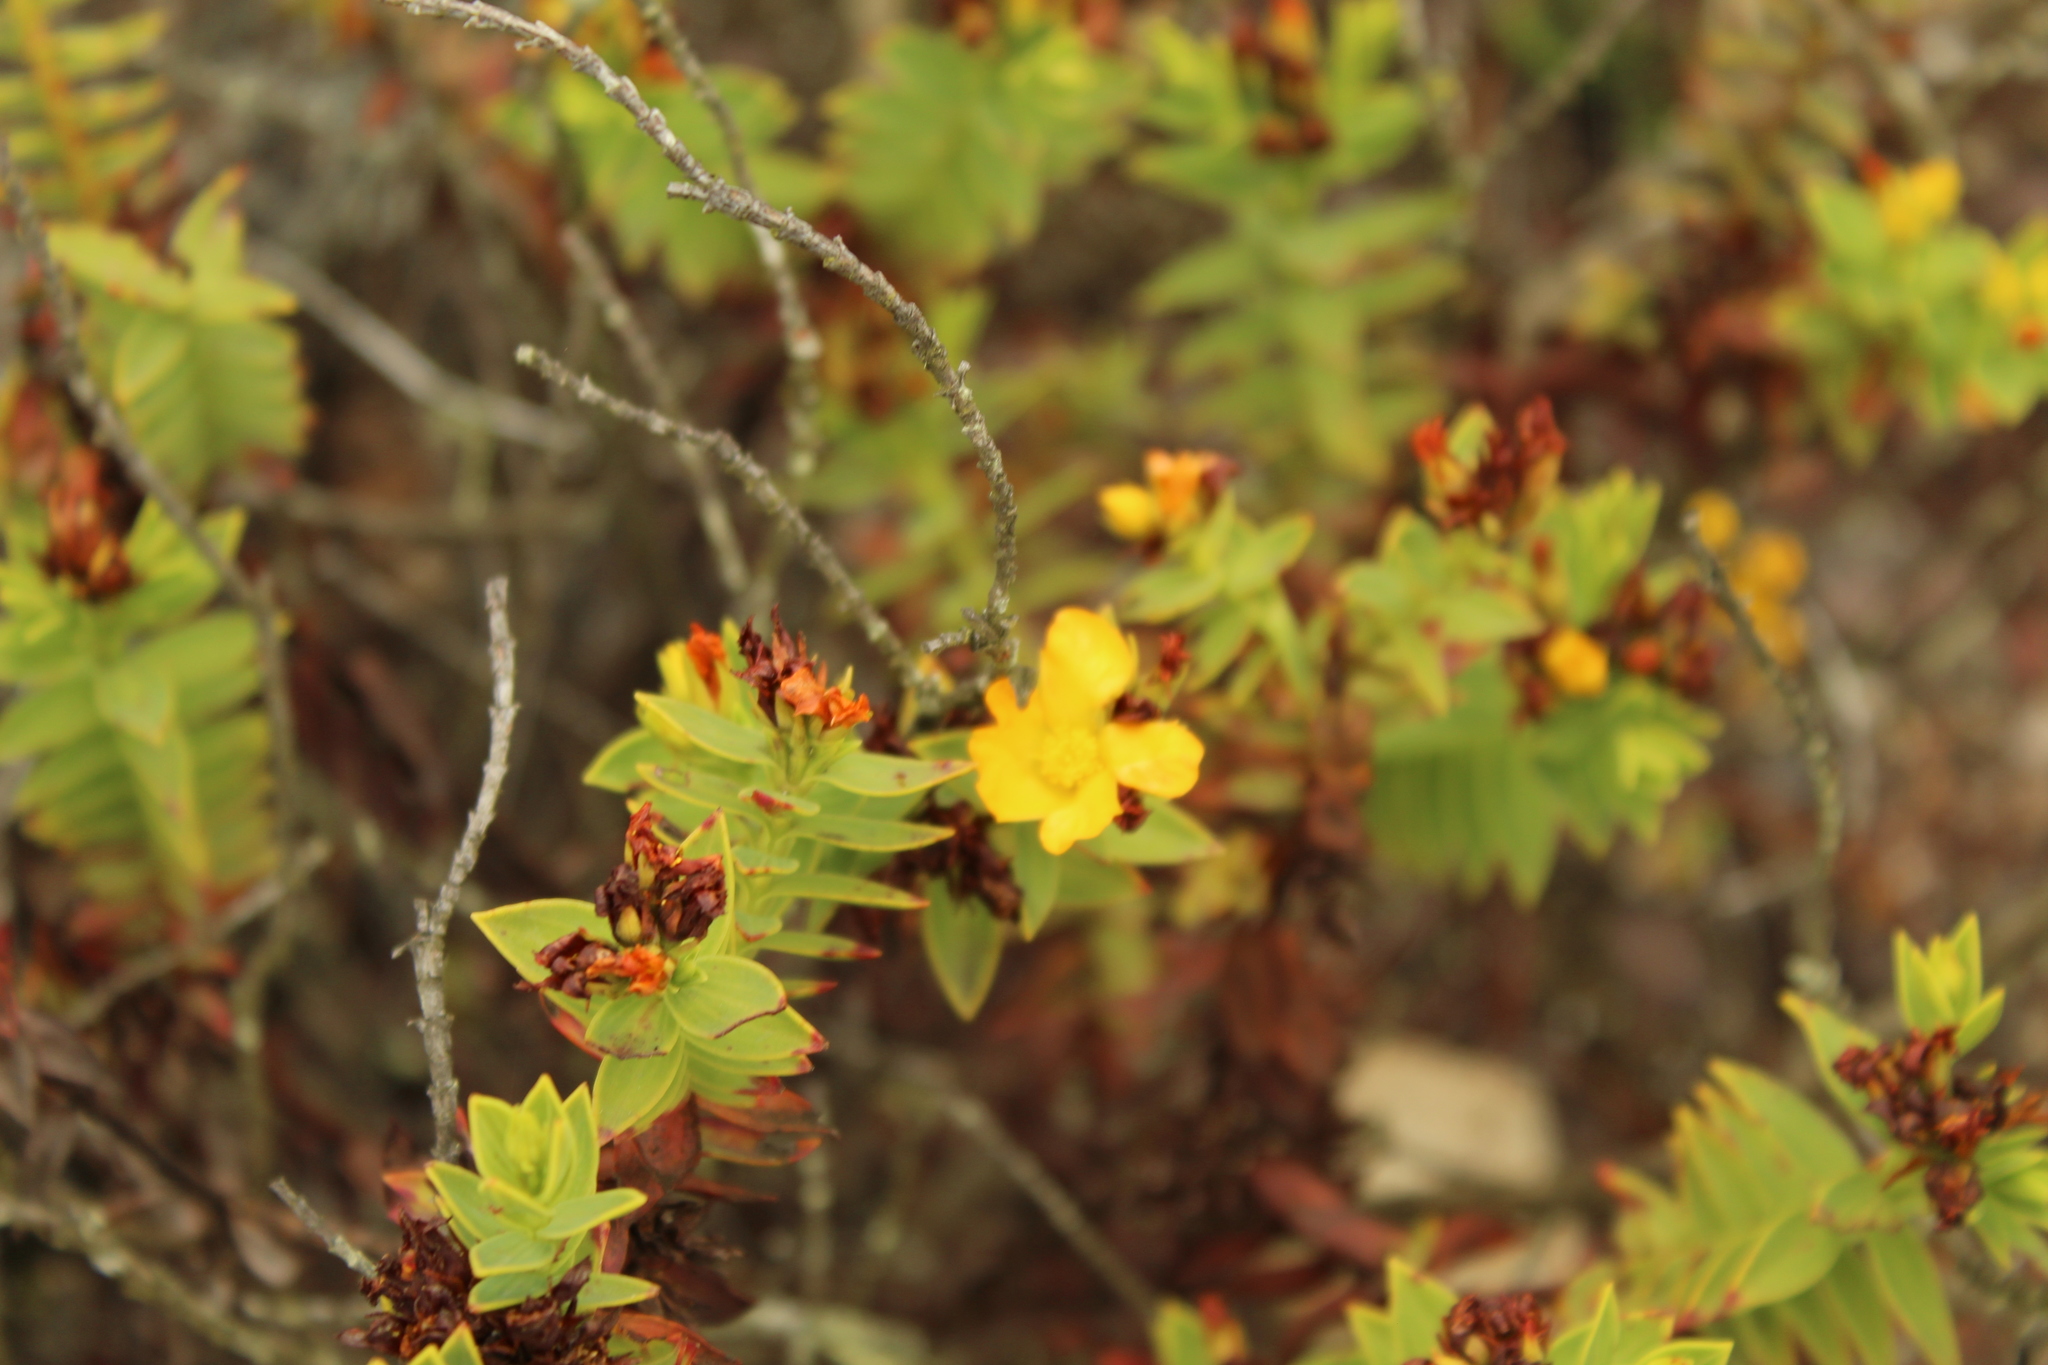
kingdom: Plantae
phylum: Tracheophyta
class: Magnoliopsida
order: Malpighiales
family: Hypericaceae
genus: Hypericum
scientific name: Hypericum mexicanum
